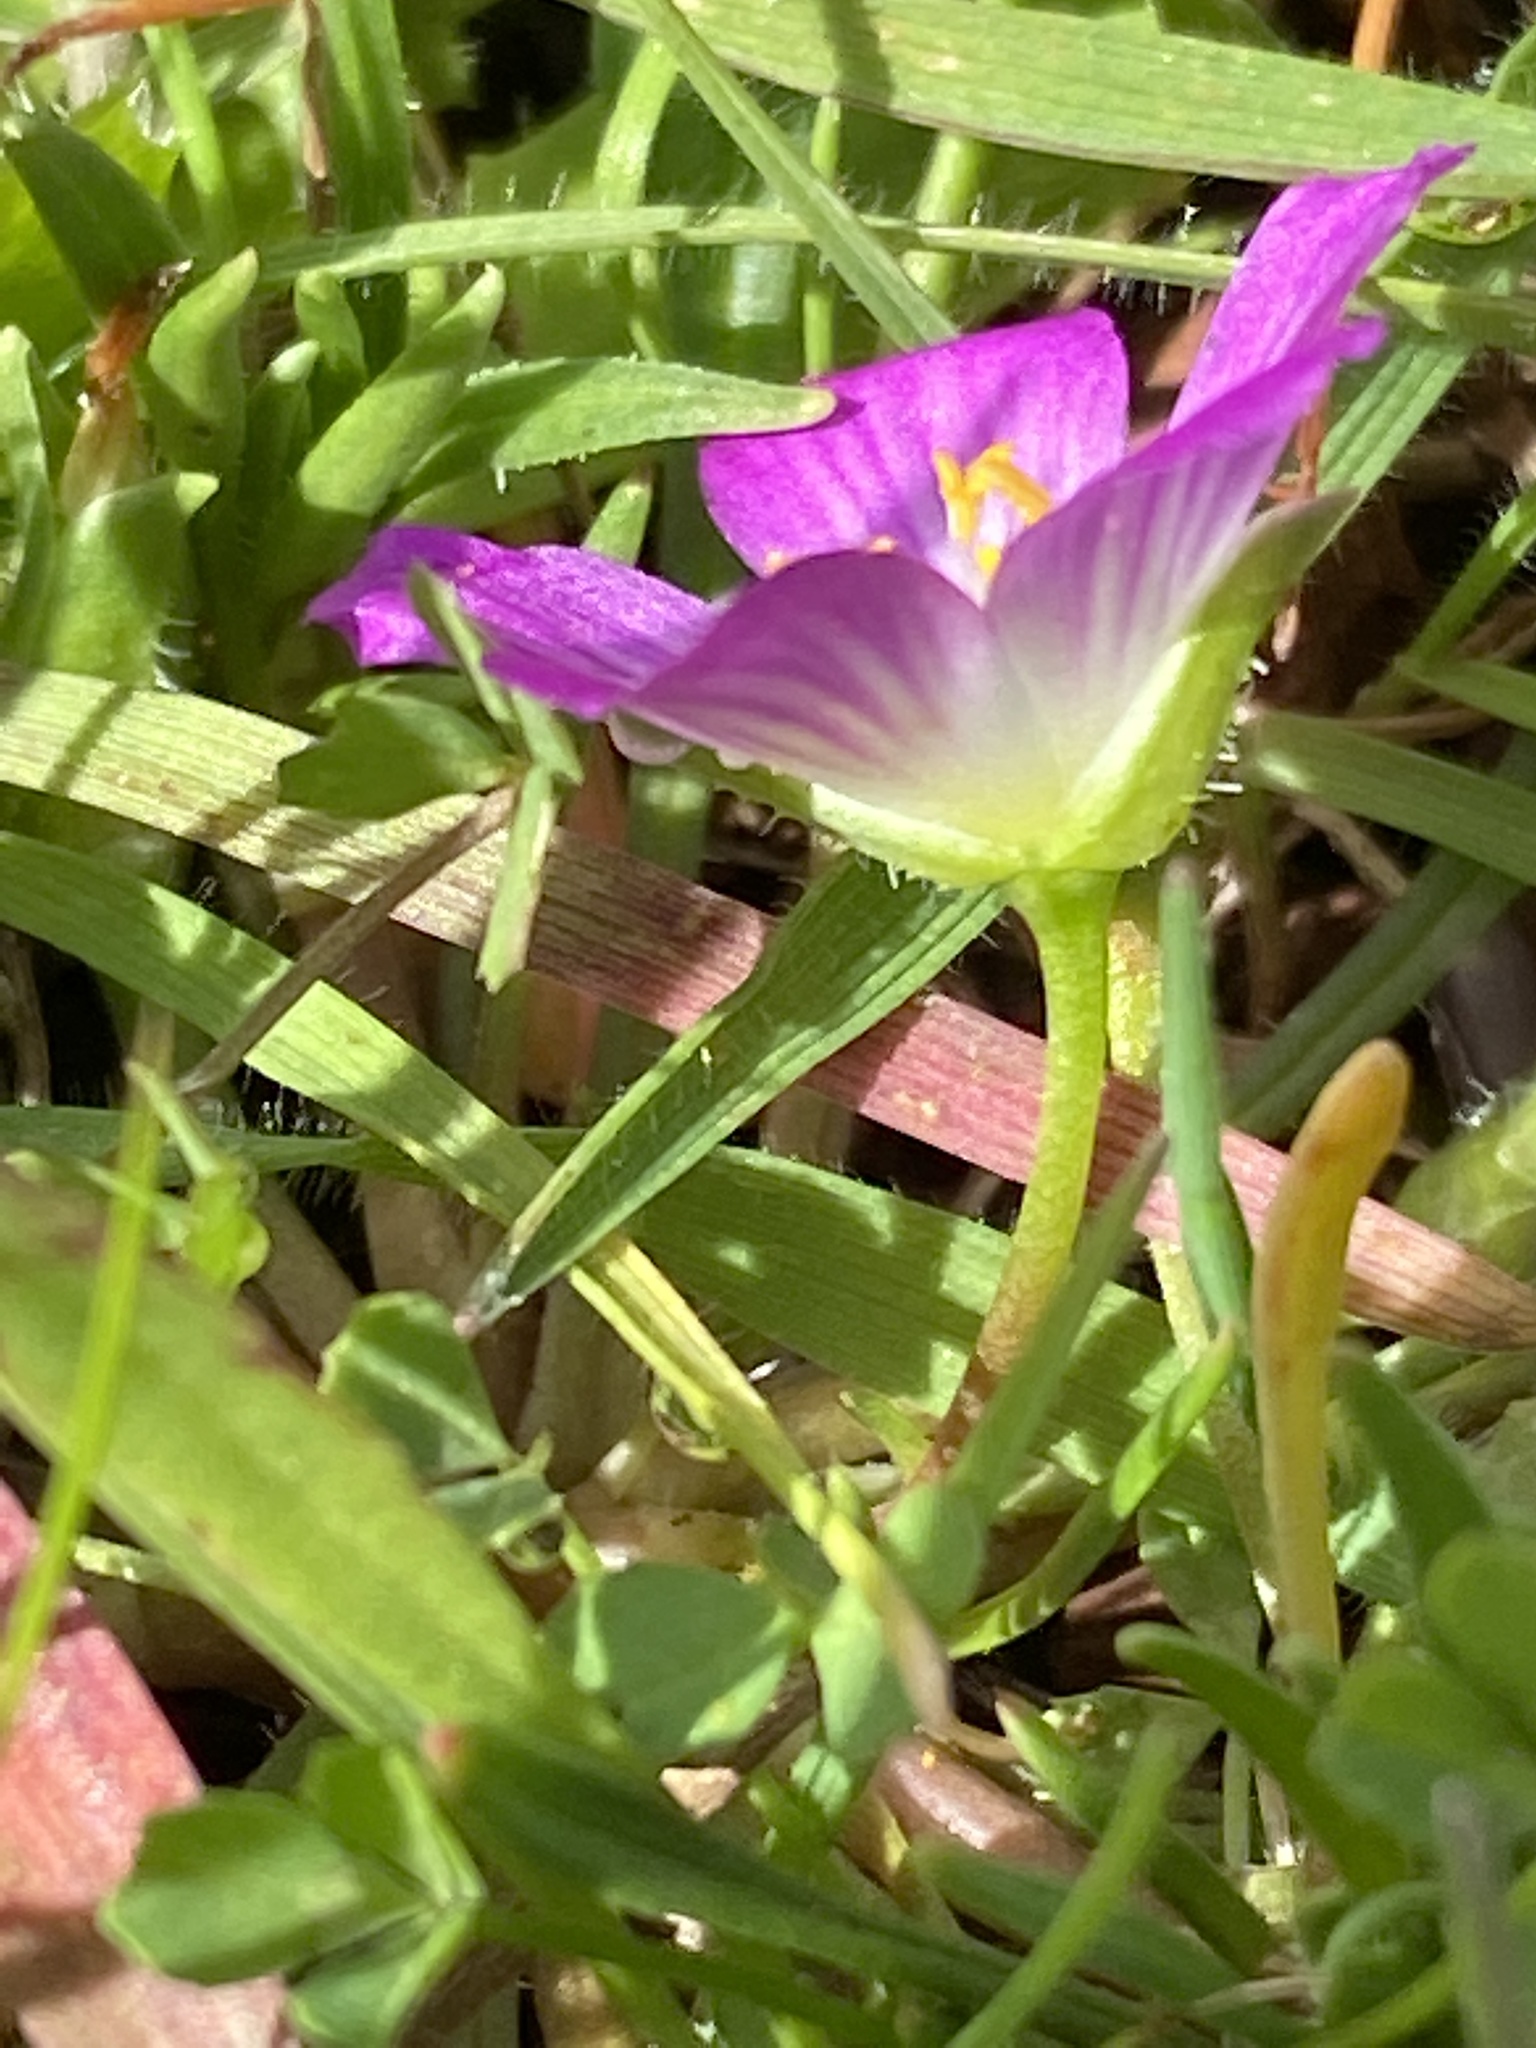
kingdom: Plantae
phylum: Tracheophyta
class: Magnoliopsida
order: Caryophyllales
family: Montiaceae
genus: Calandrinia
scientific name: Calandrinia menziesii
